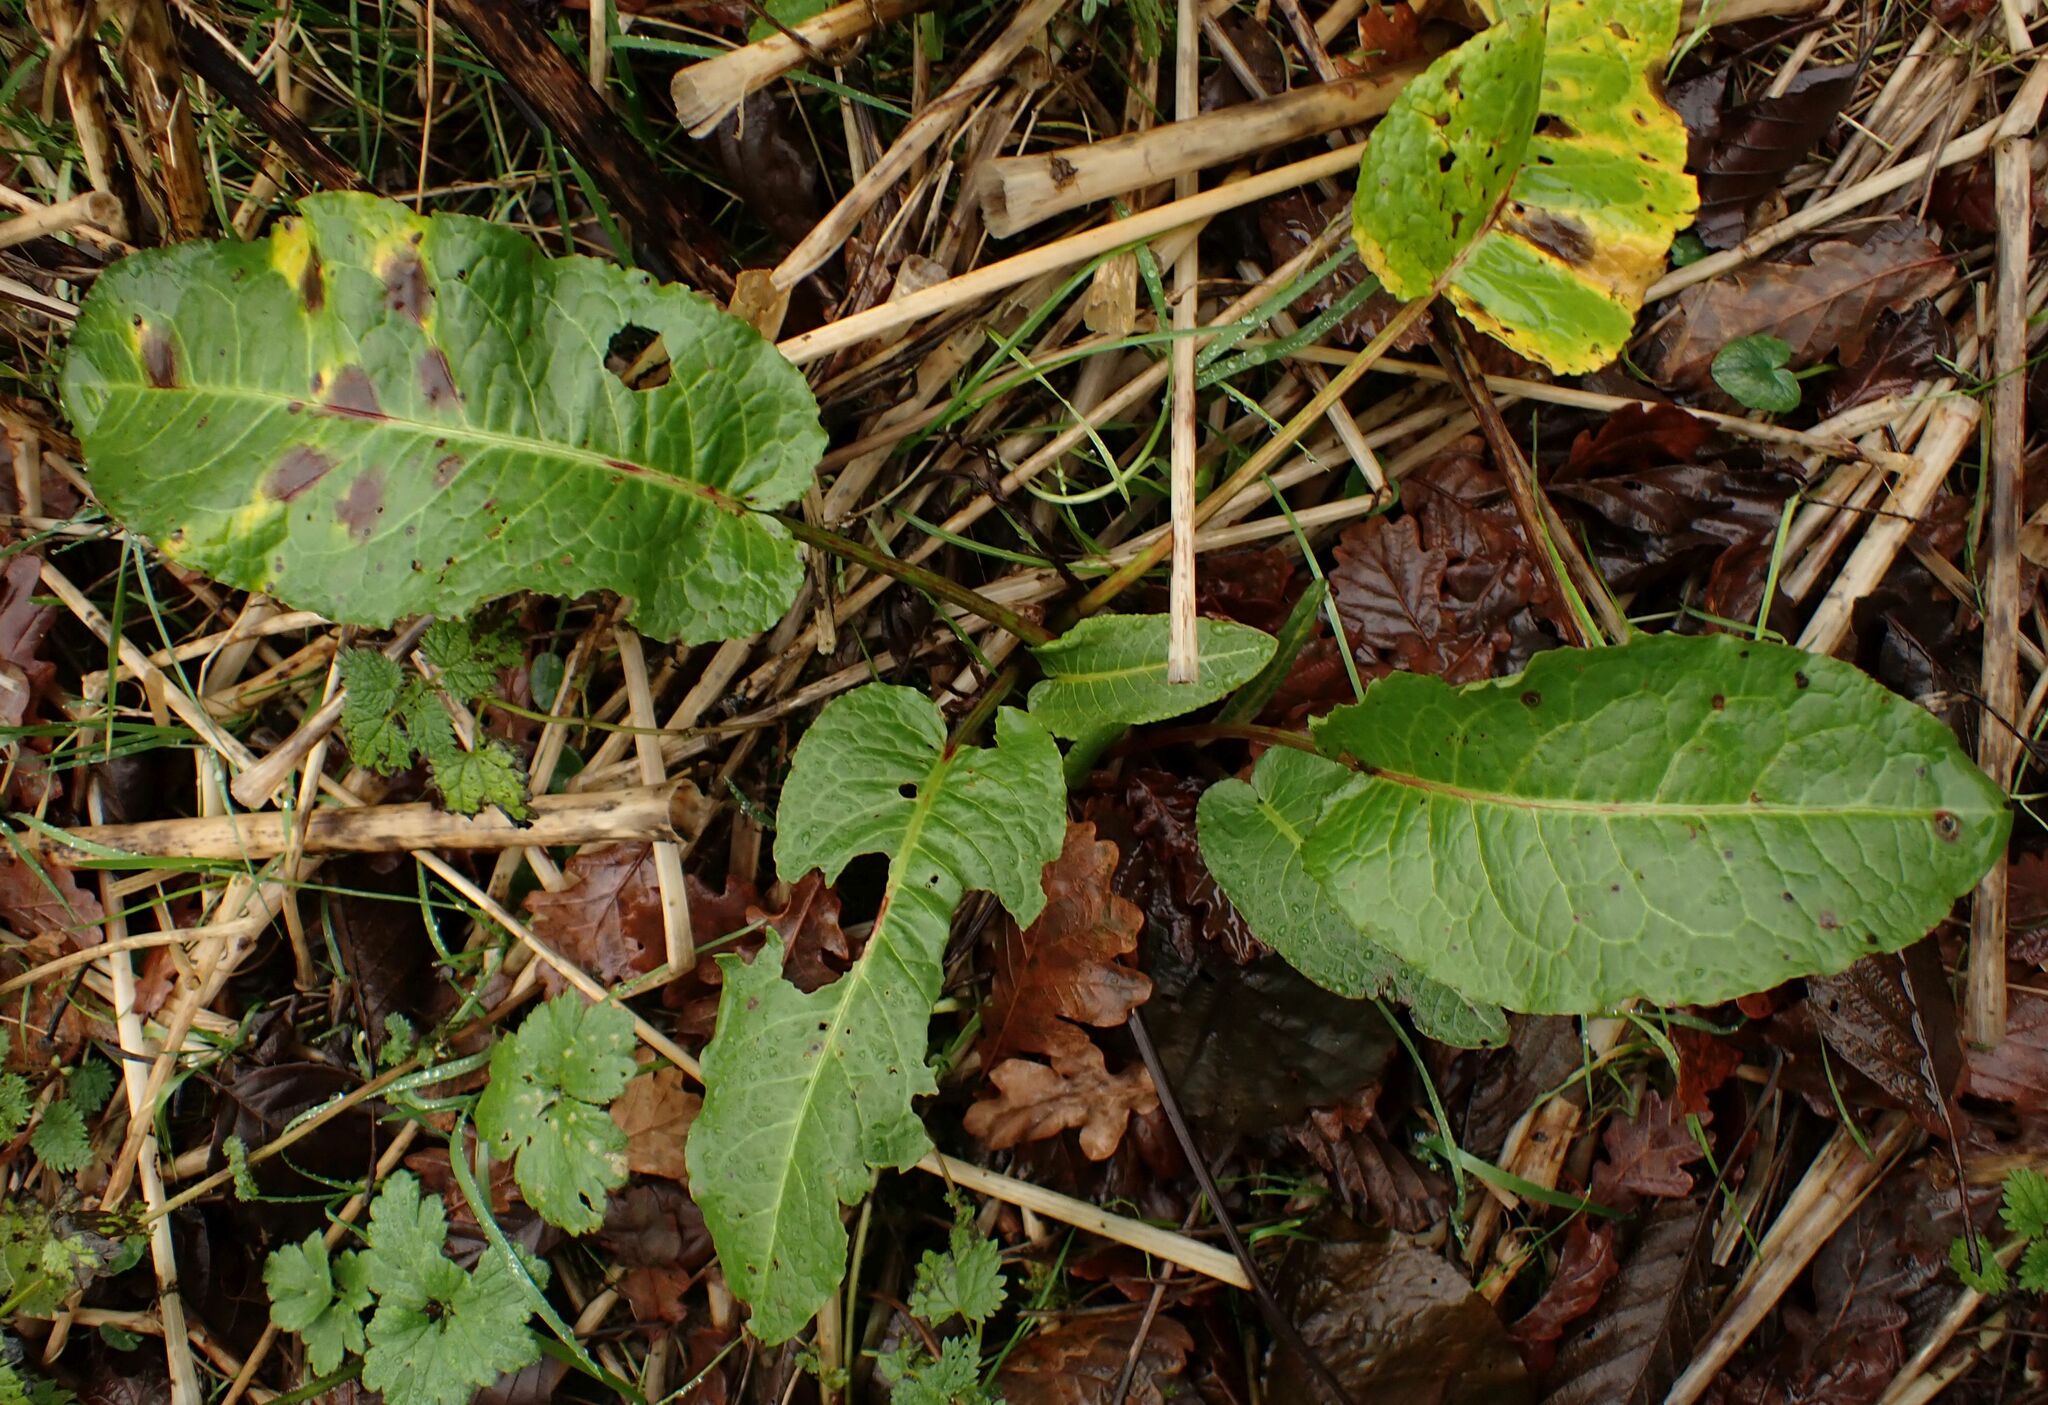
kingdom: Plantae
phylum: Tracheophyta
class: Magnoliopsida
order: Caryophyllales
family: Polygonaceae
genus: Rumex
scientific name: Rumex obtusifolius
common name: Bitter dock
